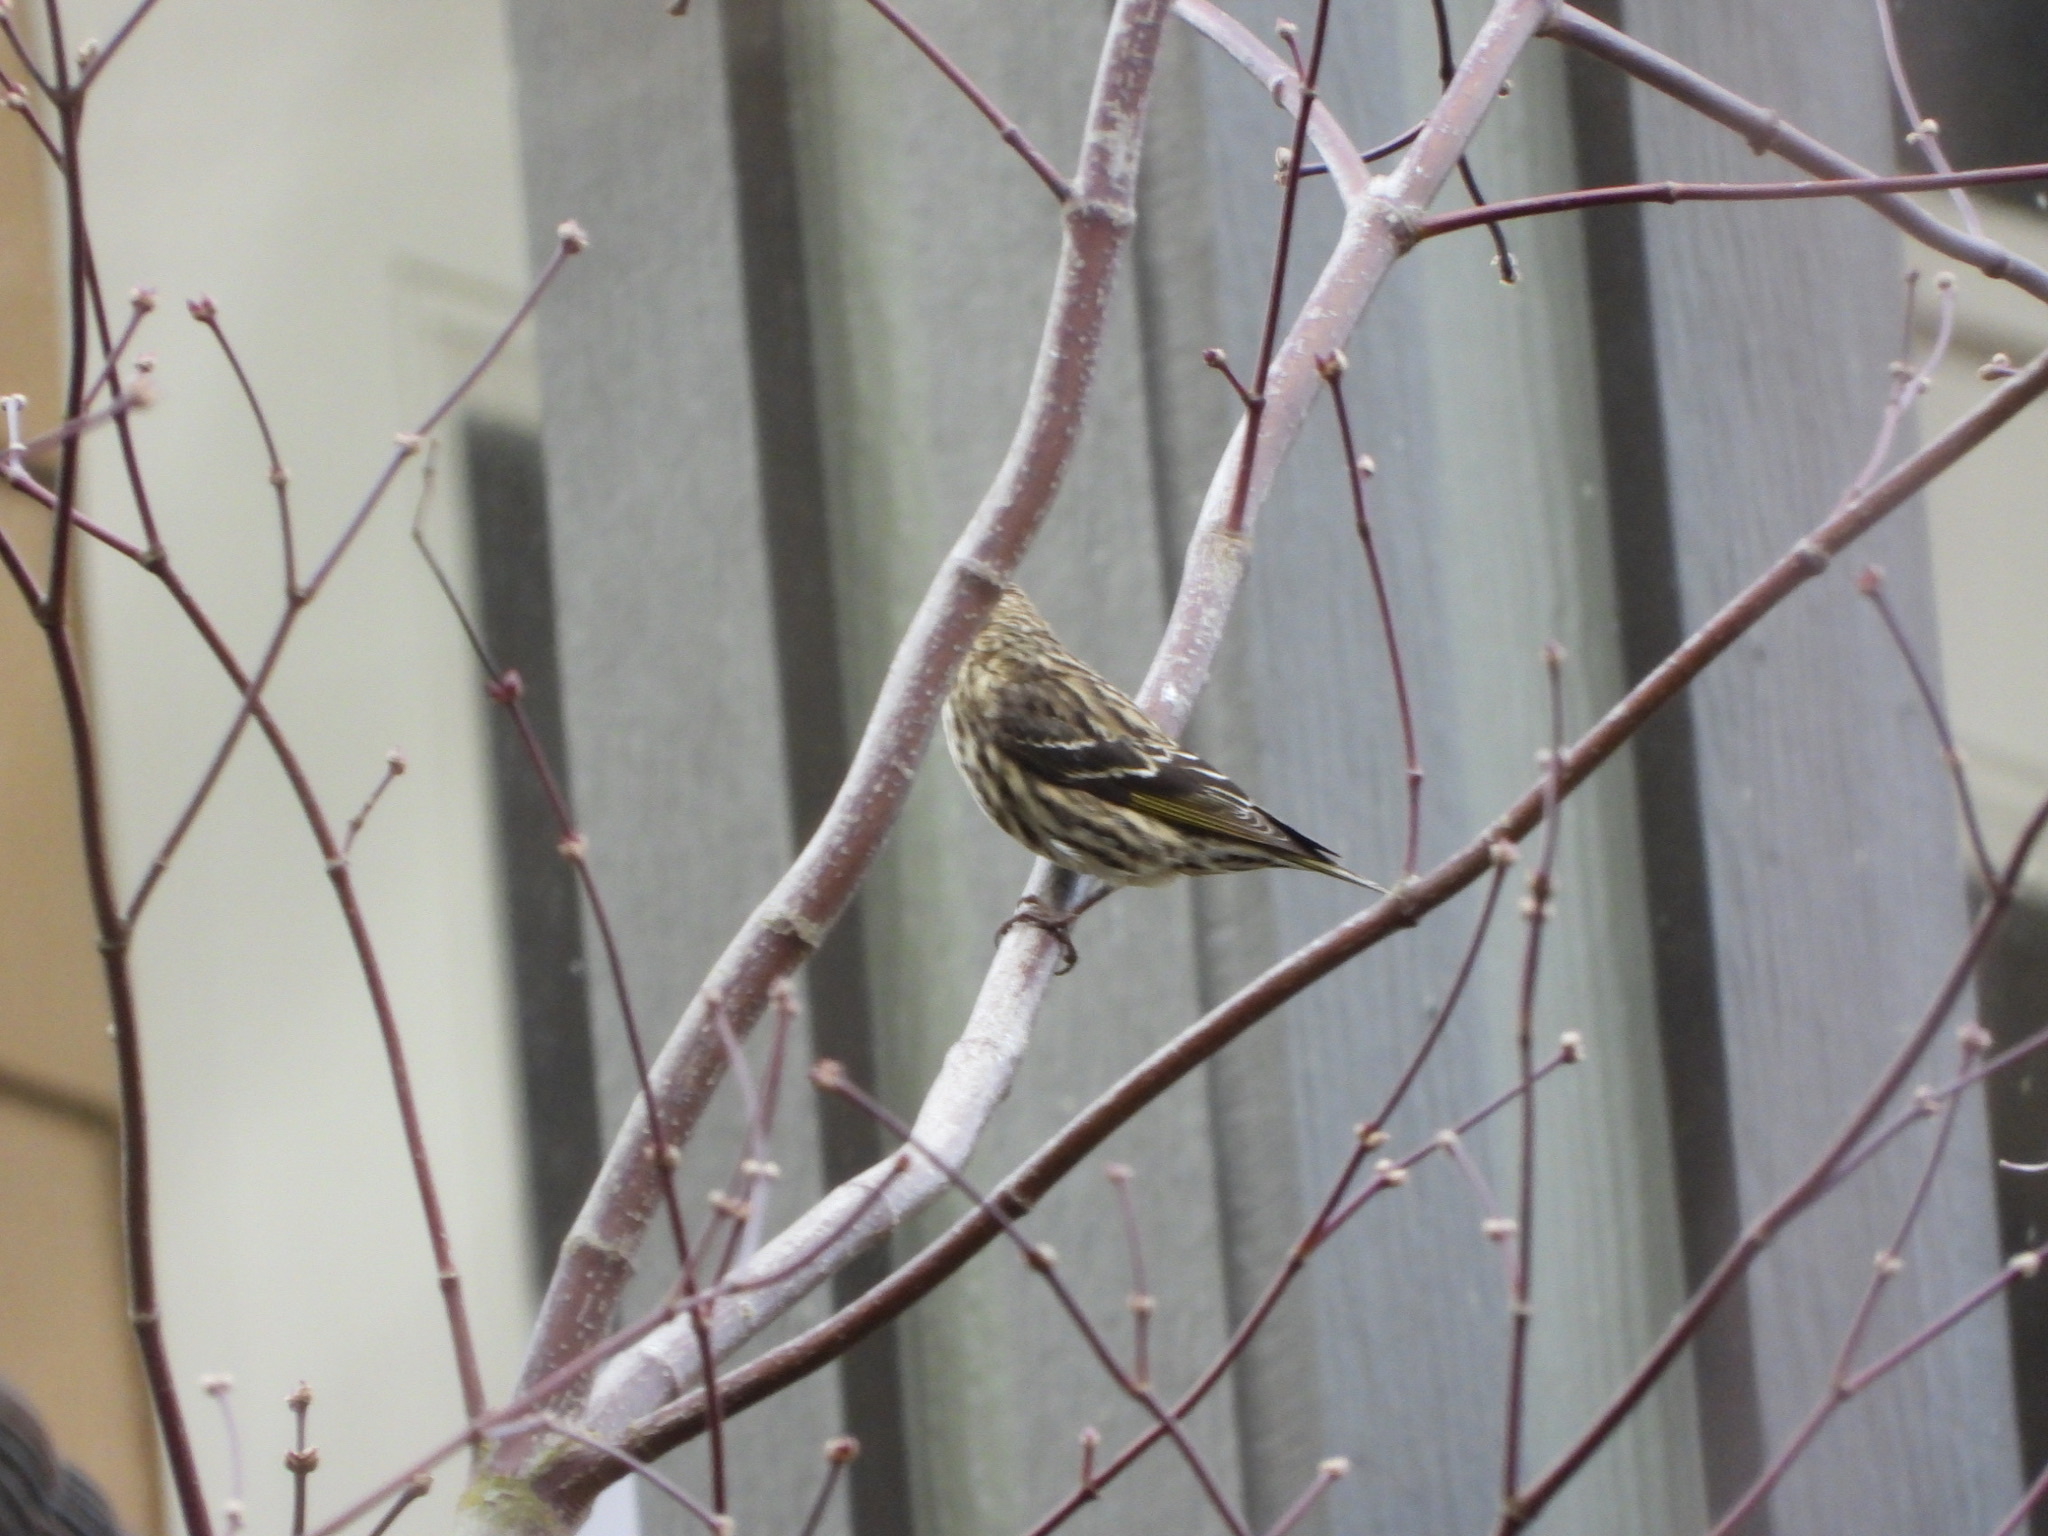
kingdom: Animalia
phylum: Chordata
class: Aves
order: Passeriformes
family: Fringillidae
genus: Spinus
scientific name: Spinus pinus
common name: Pine siskin
